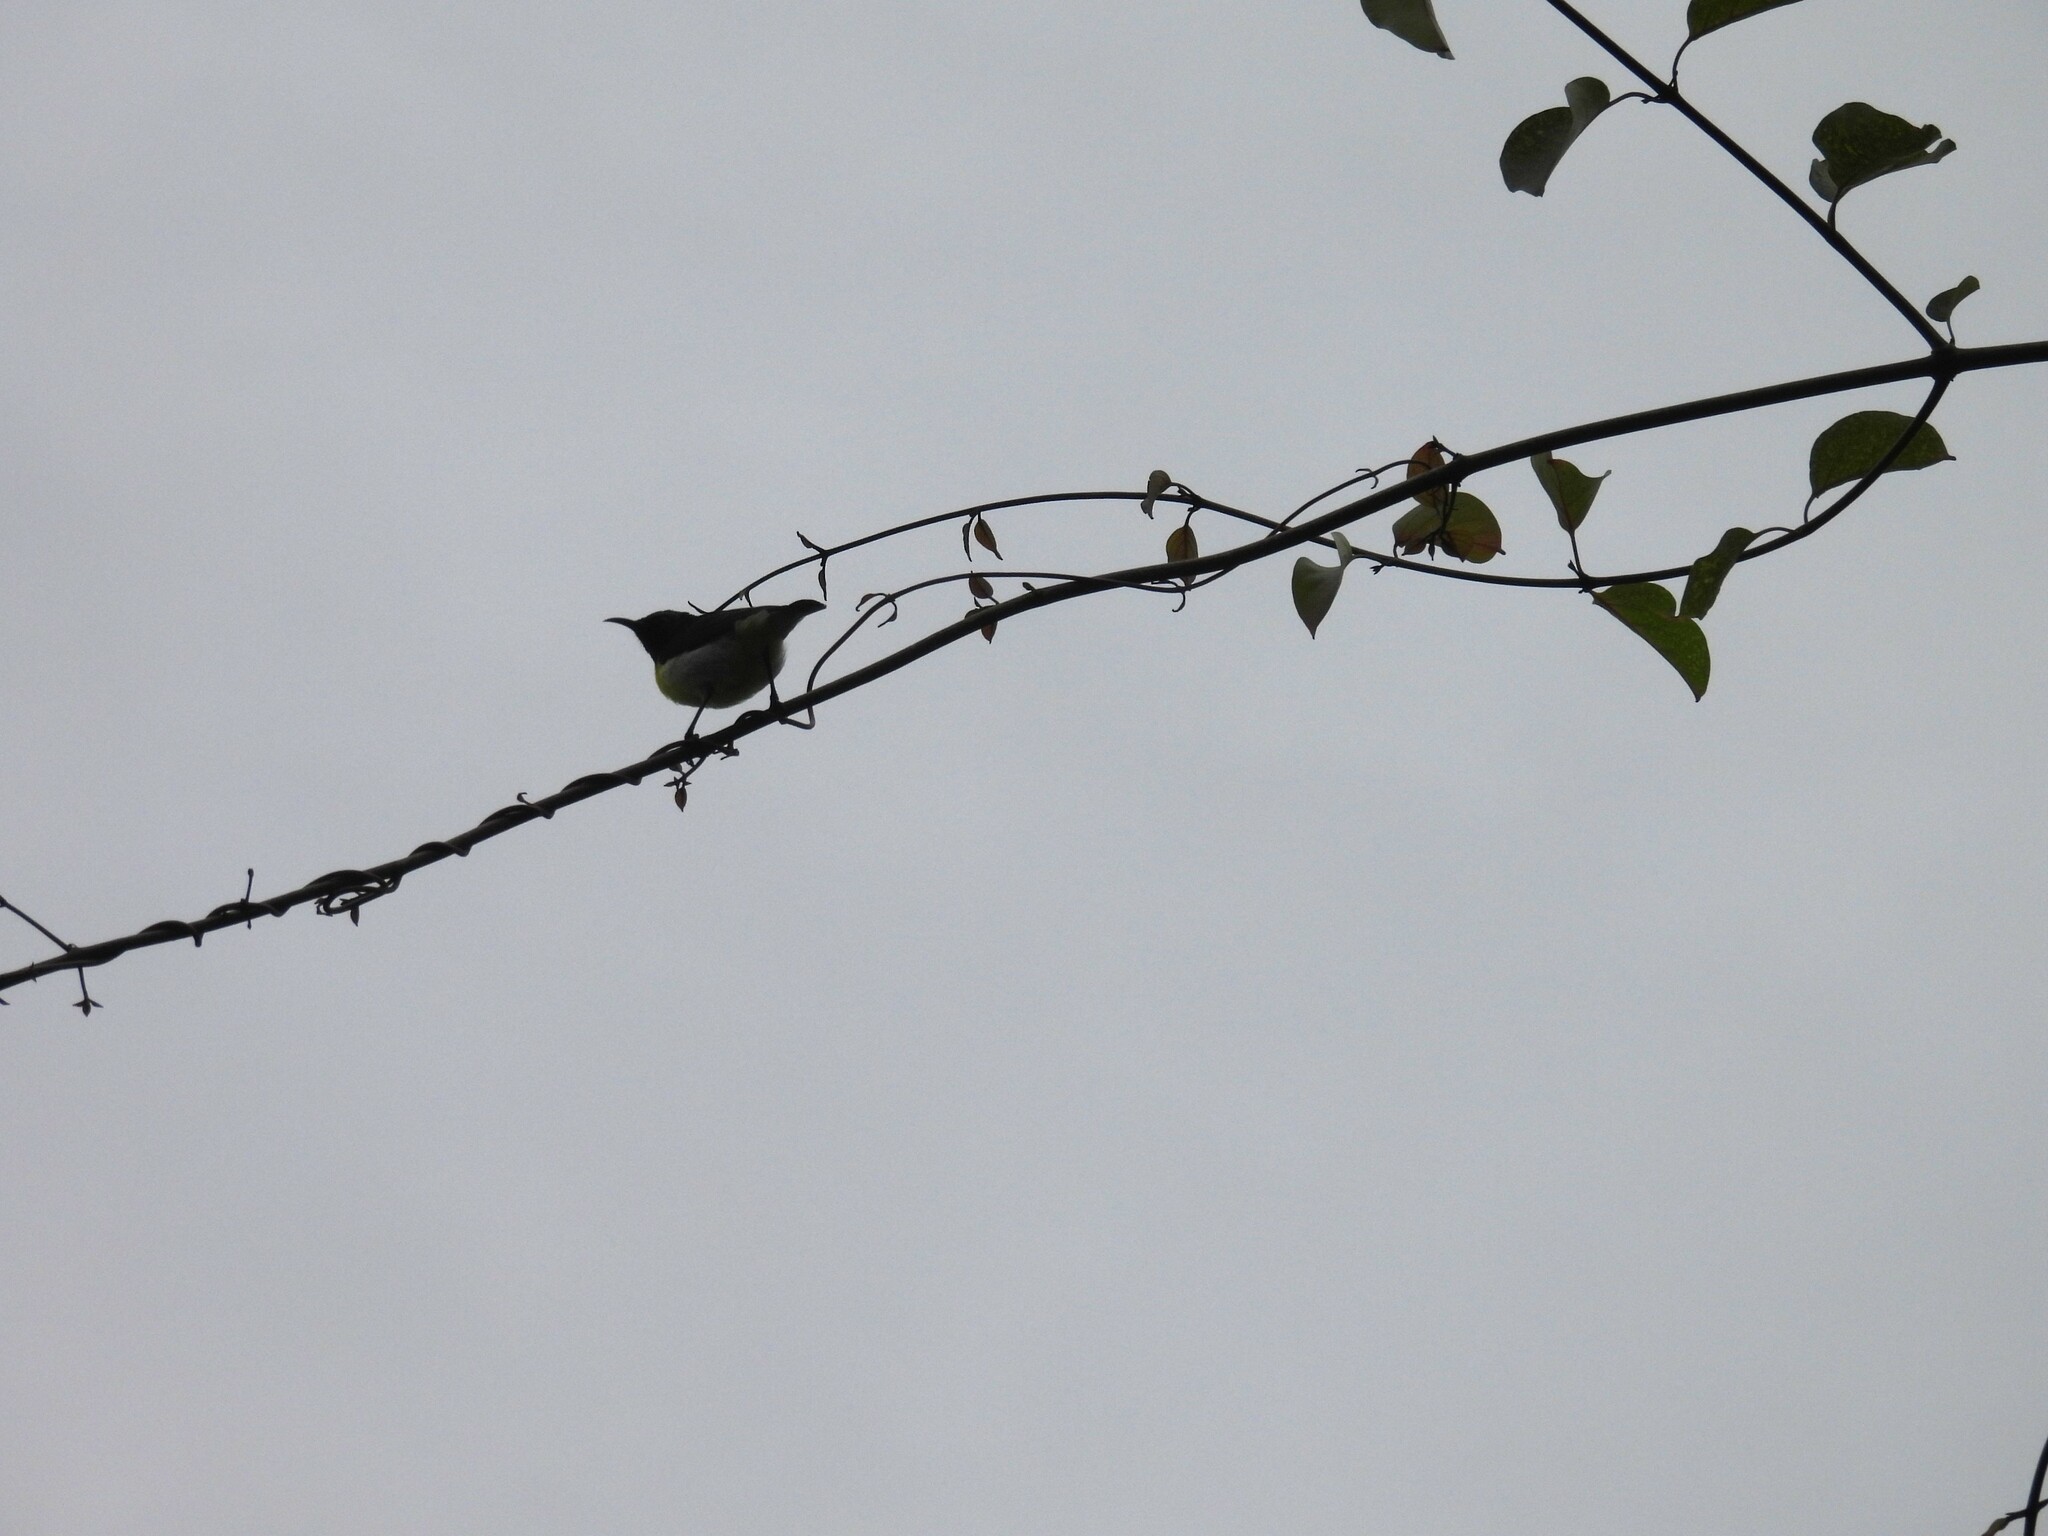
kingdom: Animalia
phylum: Chordata
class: Aves
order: Passeriformes
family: Nectariniidae
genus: Leptocoma
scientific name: Leptocoma zeylonica
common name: Purple-rumped sunbird
